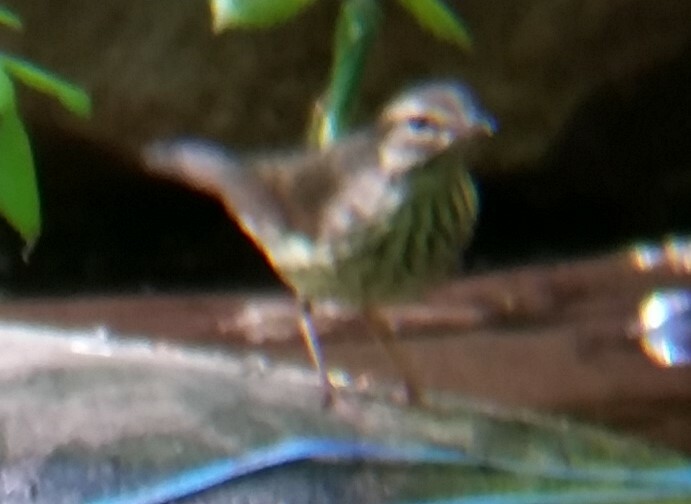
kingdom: Animalia
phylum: Chordata
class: Aves
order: Passeriformes
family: Parulidae
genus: Parkesia
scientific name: Parkesia noveboracensis
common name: Northern waterthrush
